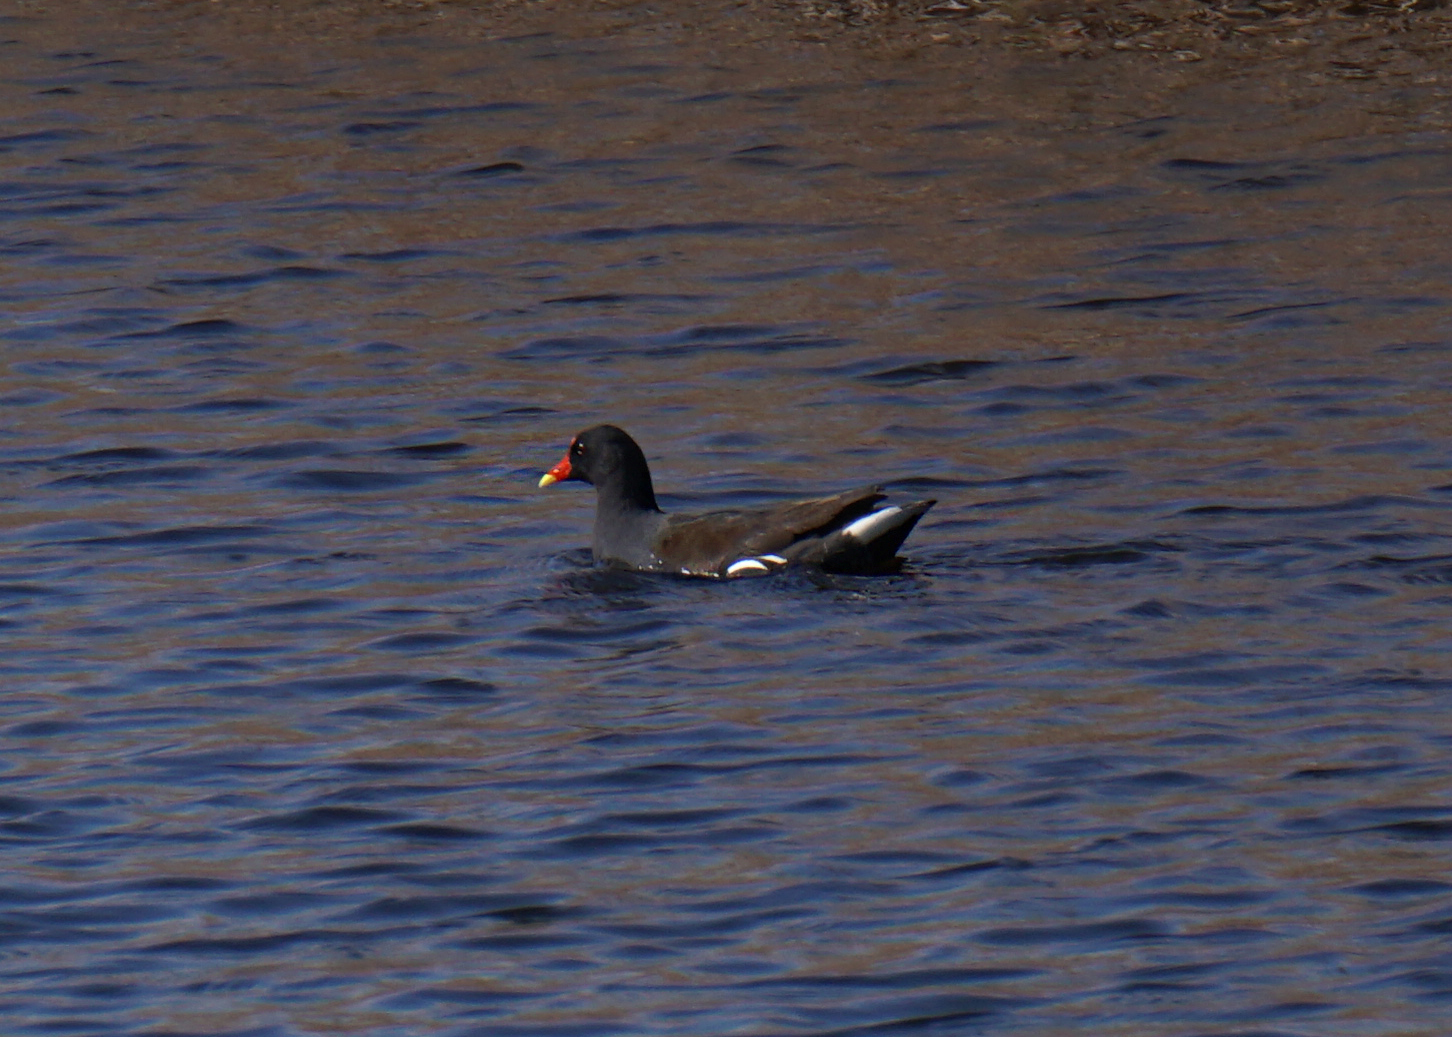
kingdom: Animalia
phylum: Chordata
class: Aves
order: Gruiformes
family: Rallidae
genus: Gallinula
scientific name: Gallinula chloropus
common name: Common moorhen
